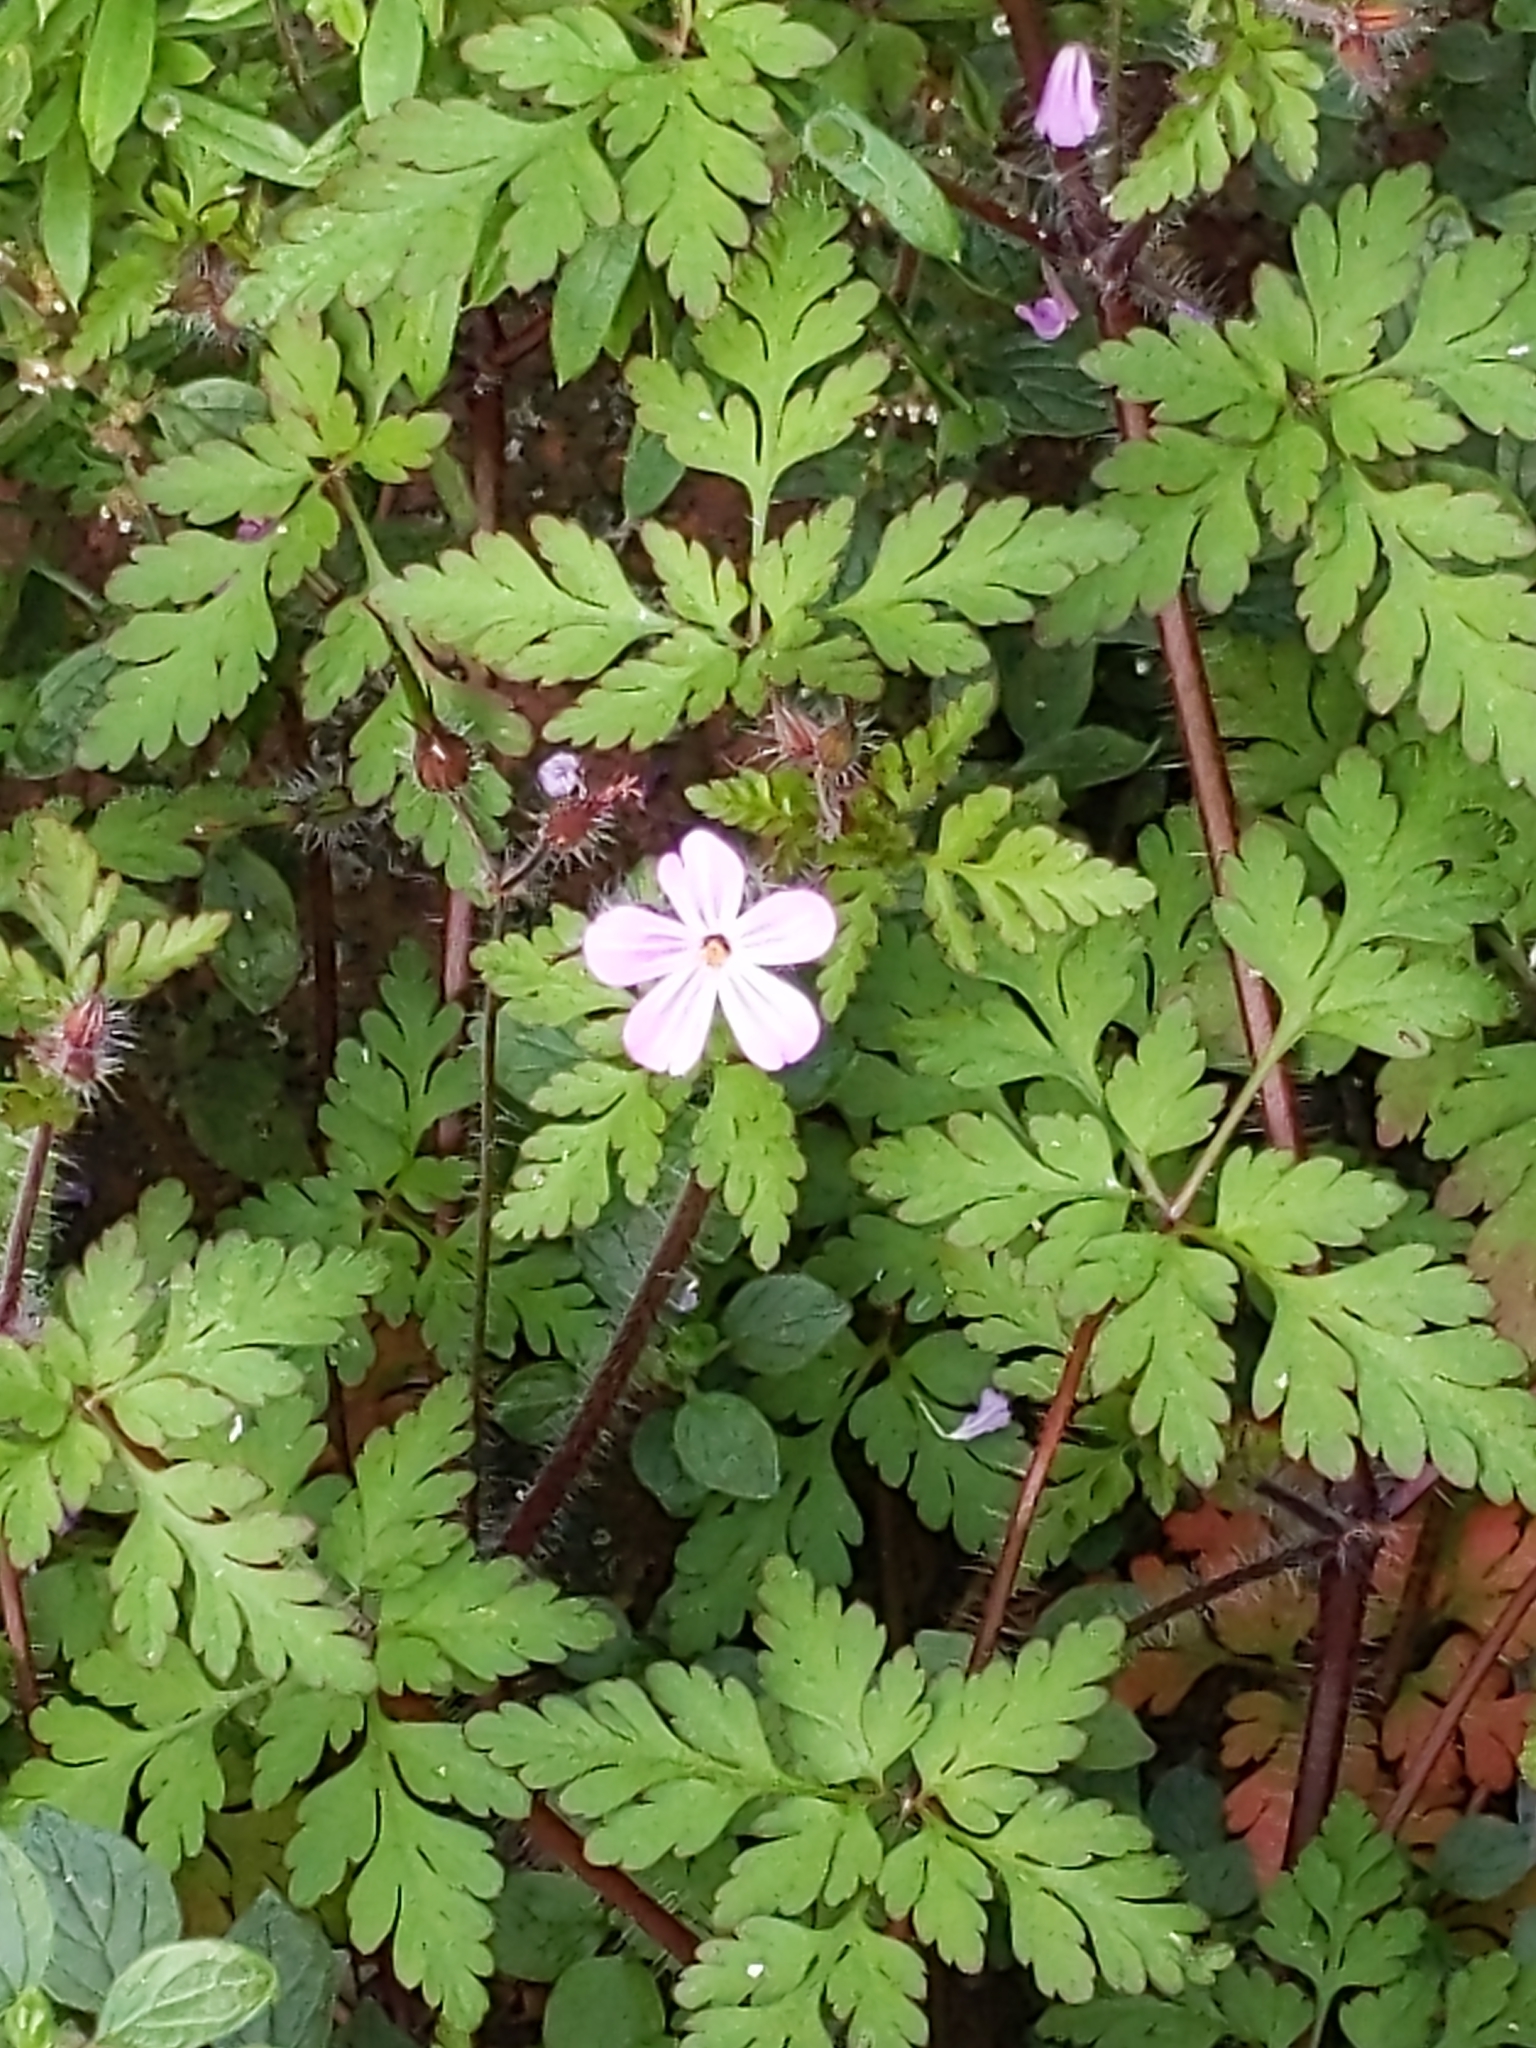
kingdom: Plantae
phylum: Tracheophyta
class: Magnoliopsida
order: Geraniales
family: Geraniaceae
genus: Geranium
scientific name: Geranium robertianum
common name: Herb-robert
